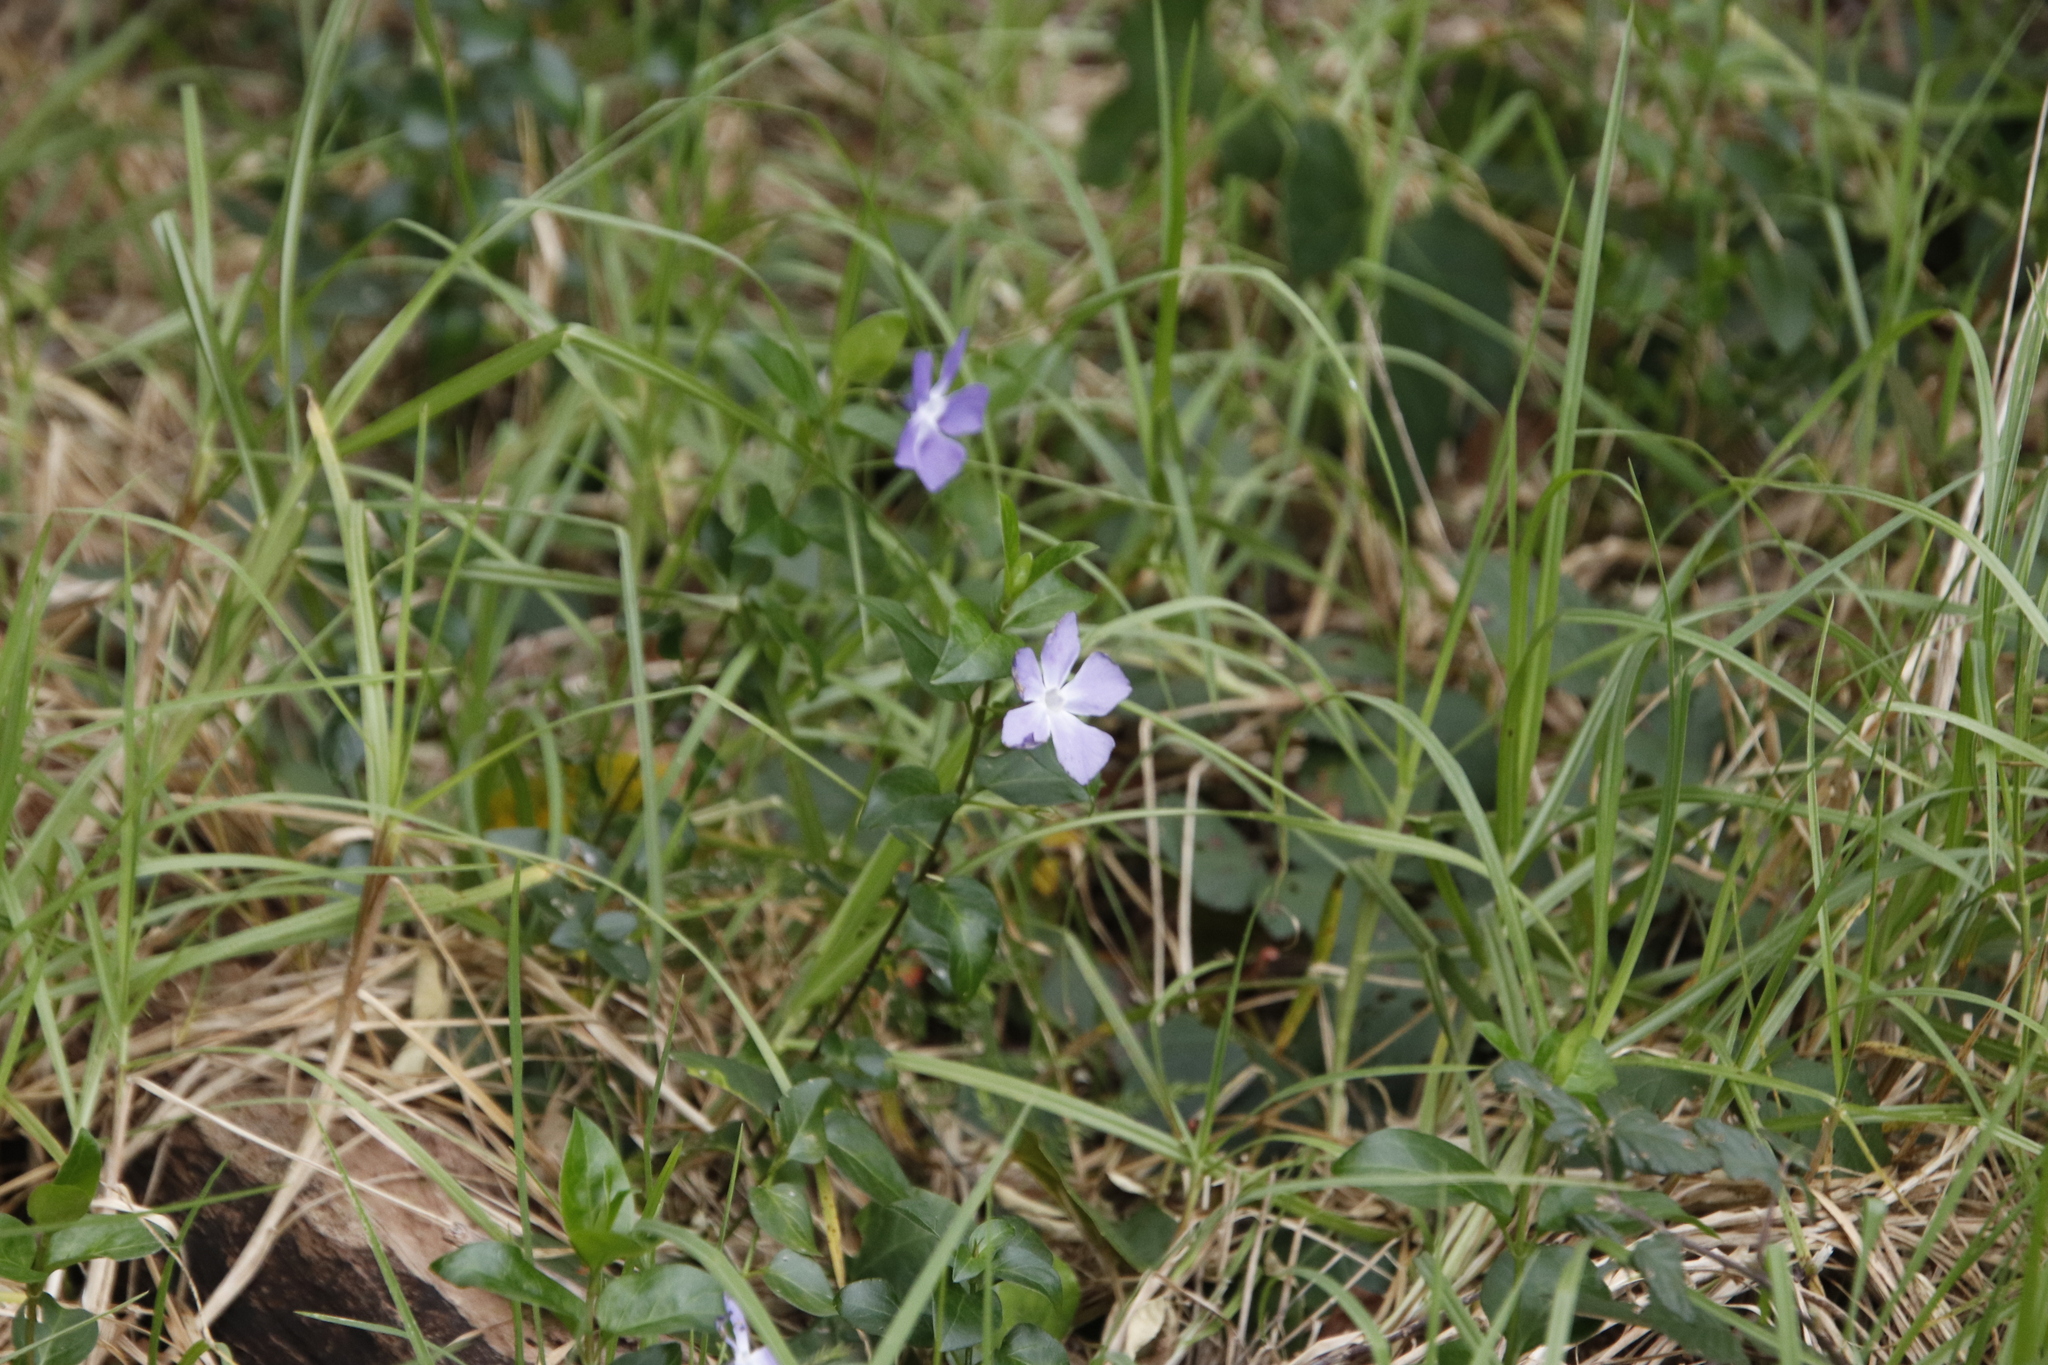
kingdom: Plantae
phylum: Tracheophyta
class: Magnoliopsida
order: Gentianales
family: Apocynaceae
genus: Vinca
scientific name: Vinca major
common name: Greater periwinkle
